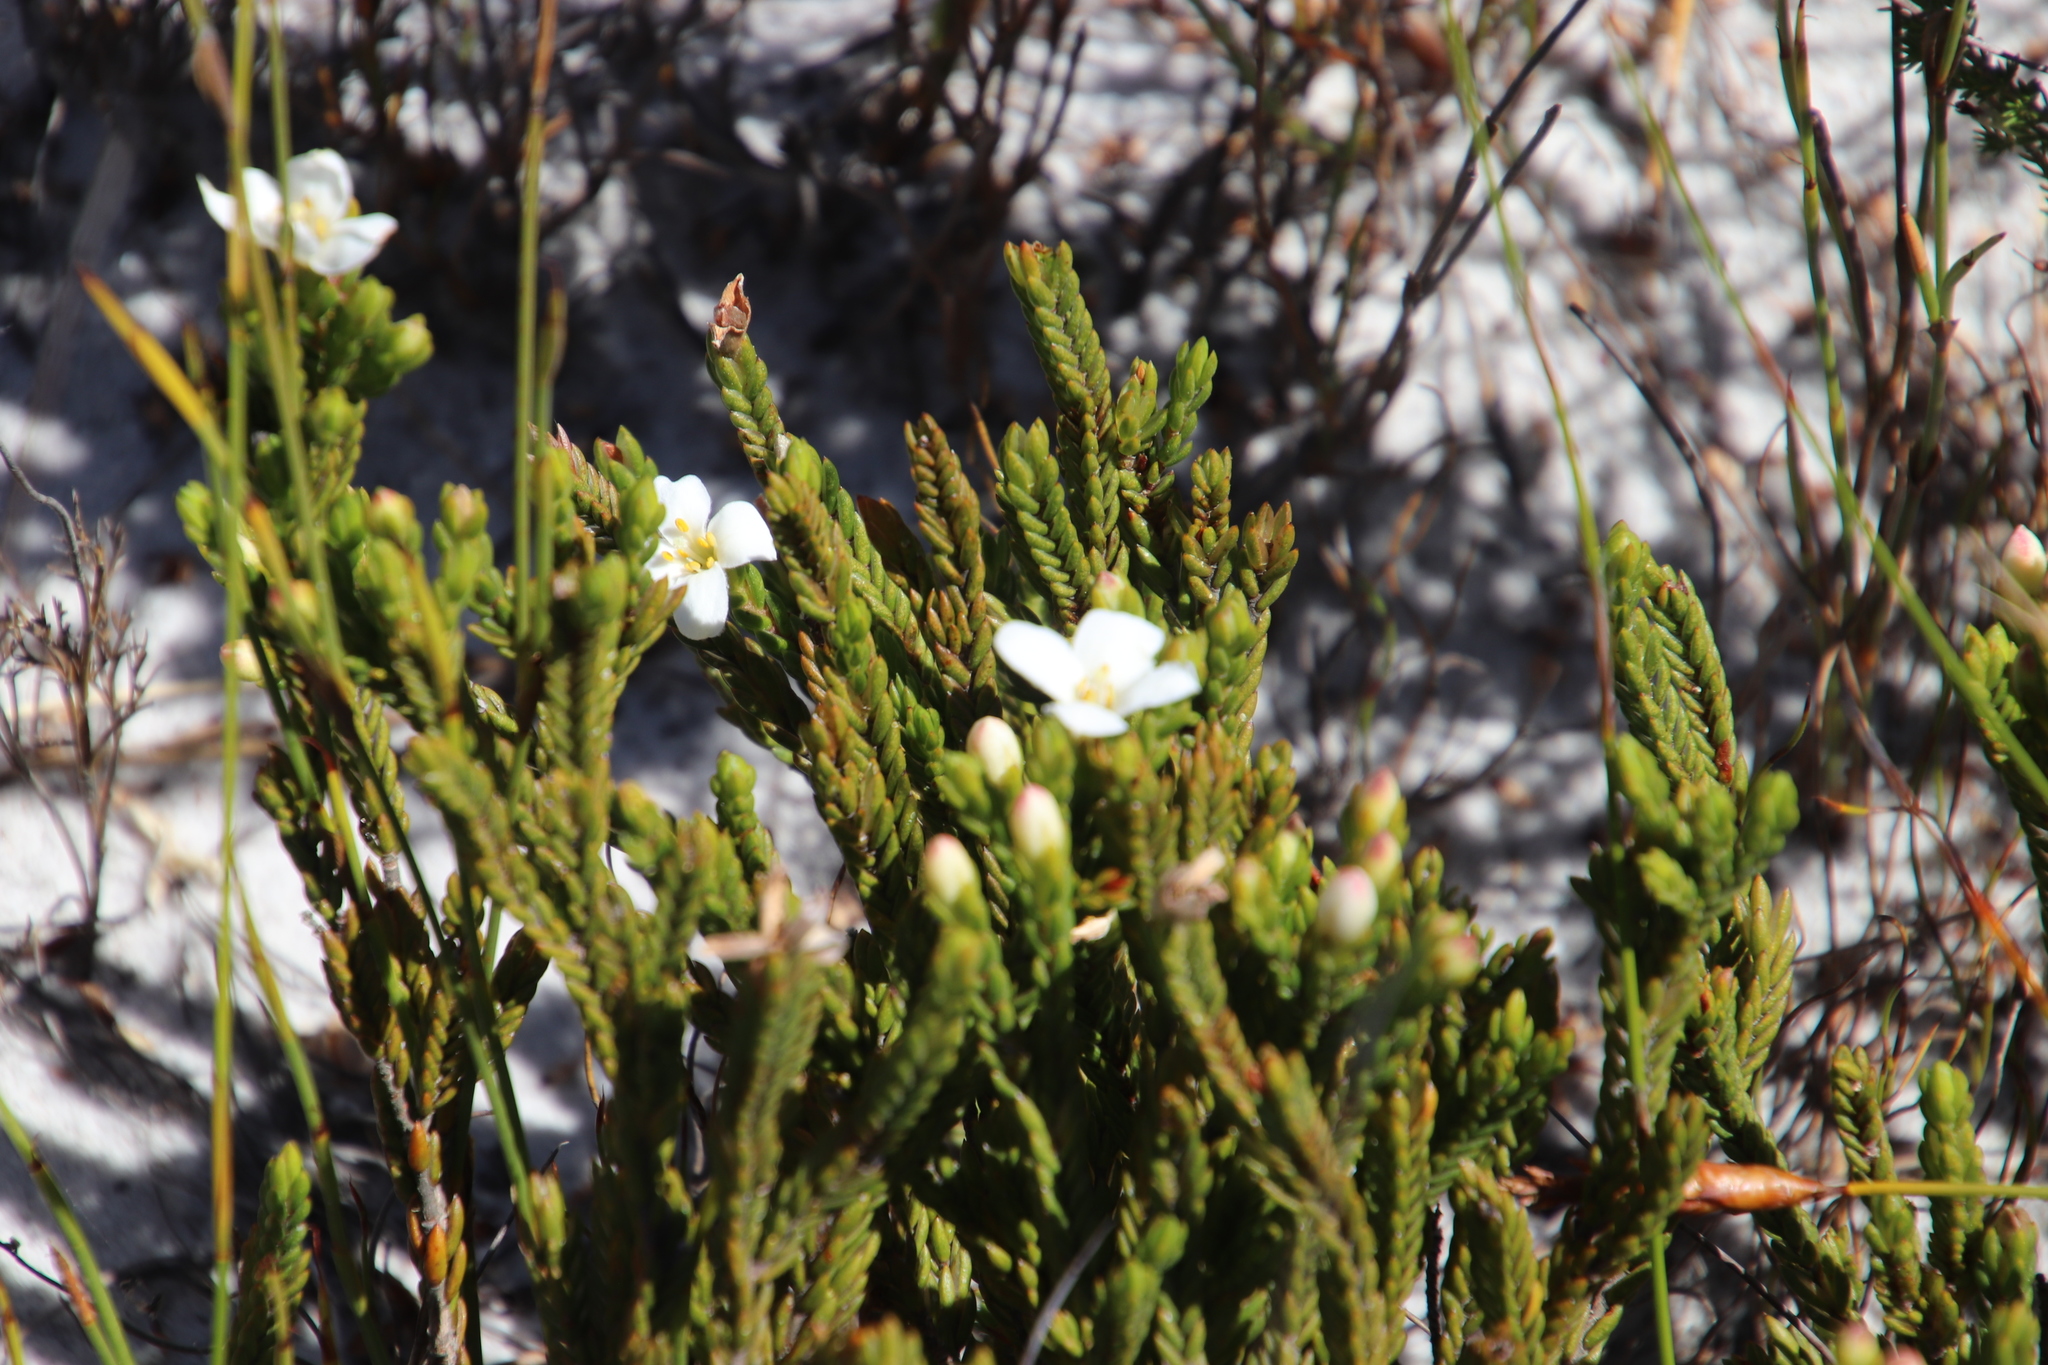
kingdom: Plantae
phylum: Tracheophyta
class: Magnoliopsida
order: Malvales
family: Thymelaeaceae
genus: Lachnaea
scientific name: Lachnaea grandiflora
